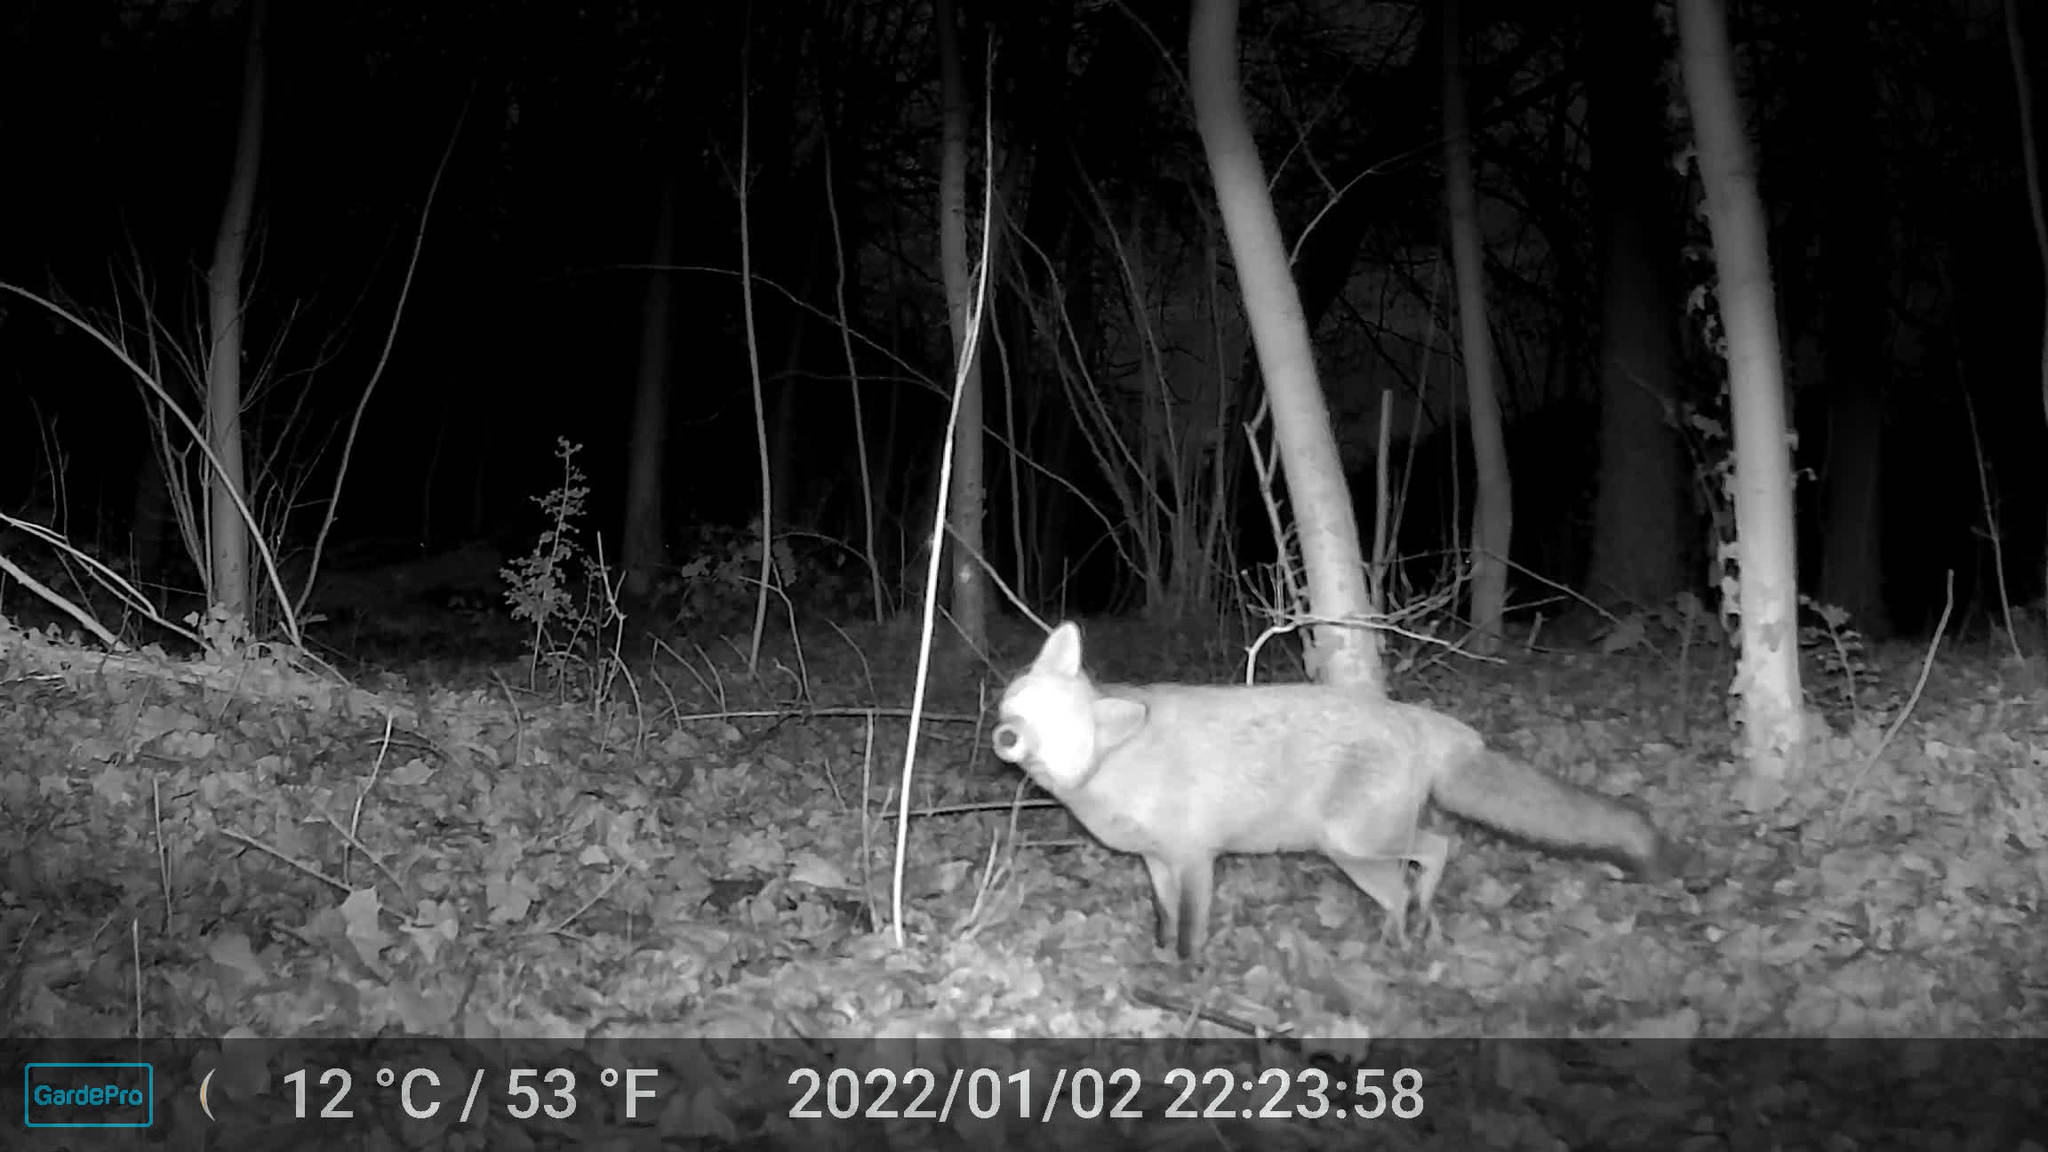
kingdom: Animalia
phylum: Chordata
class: Mammalia
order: Carnivora
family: Canidae
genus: Vulpes
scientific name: Vulpes vulpes
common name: Red fox
